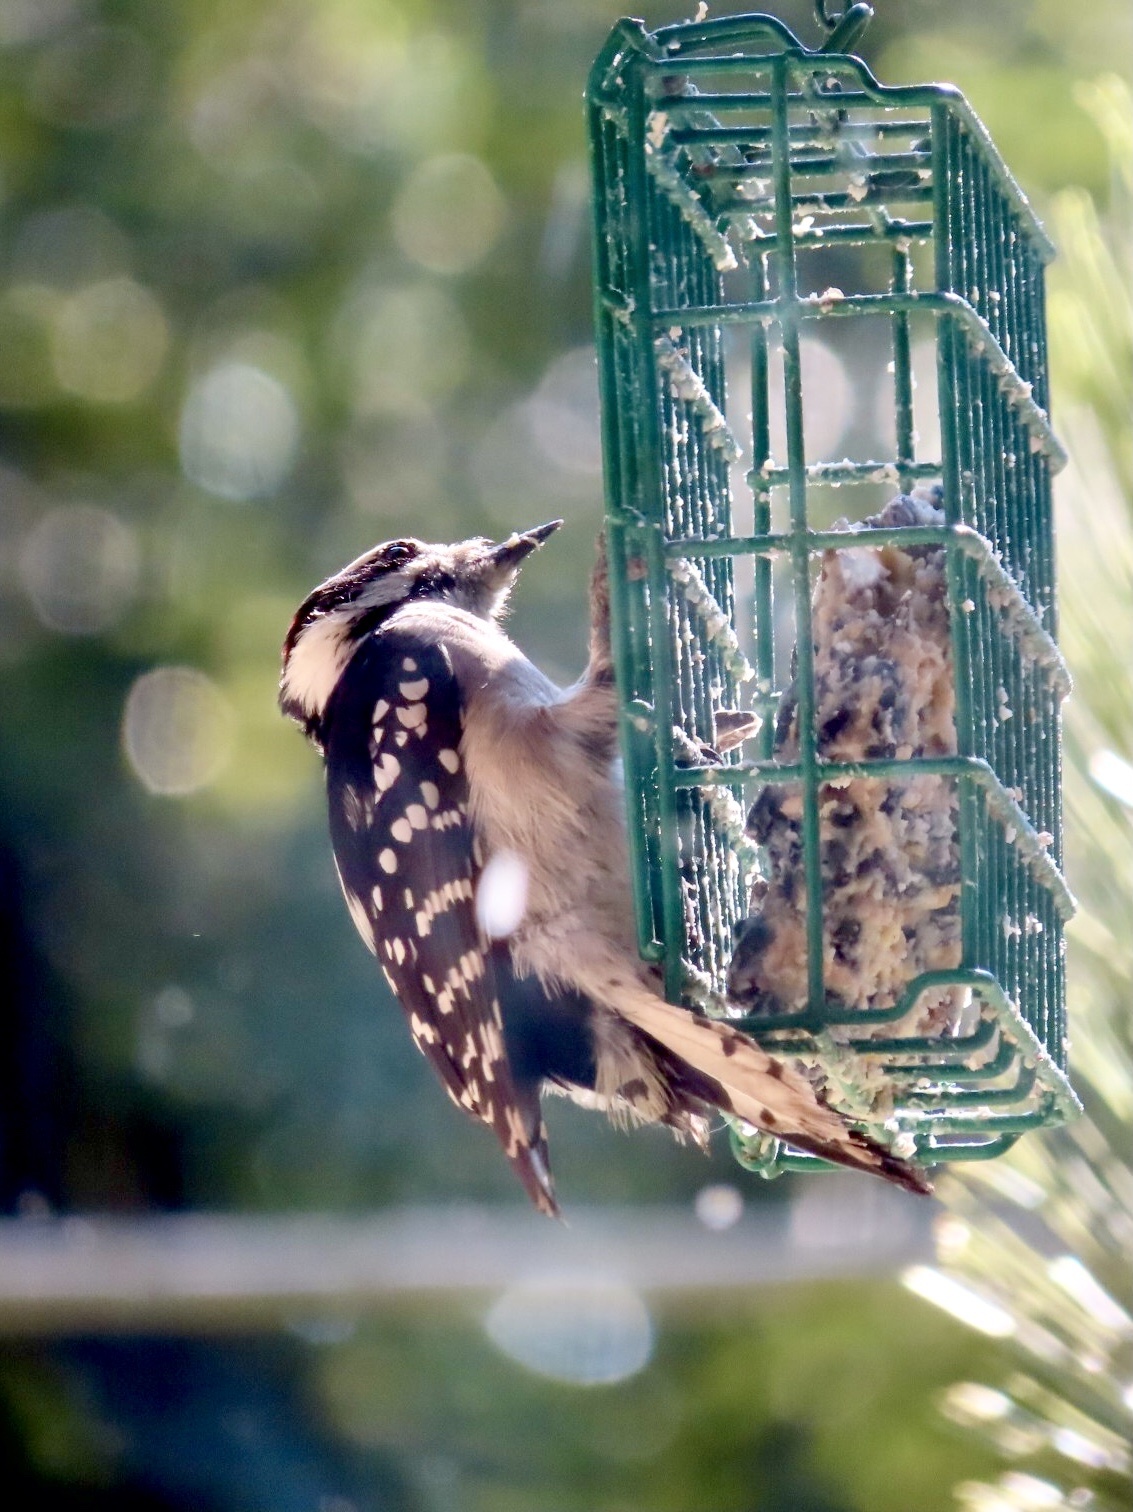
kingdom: Animalia
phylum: Chordata
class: Aves
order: Piciformes
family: Picidae
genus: Dryobates
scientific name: Dryobates pubescens
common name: Downy woodpecker
